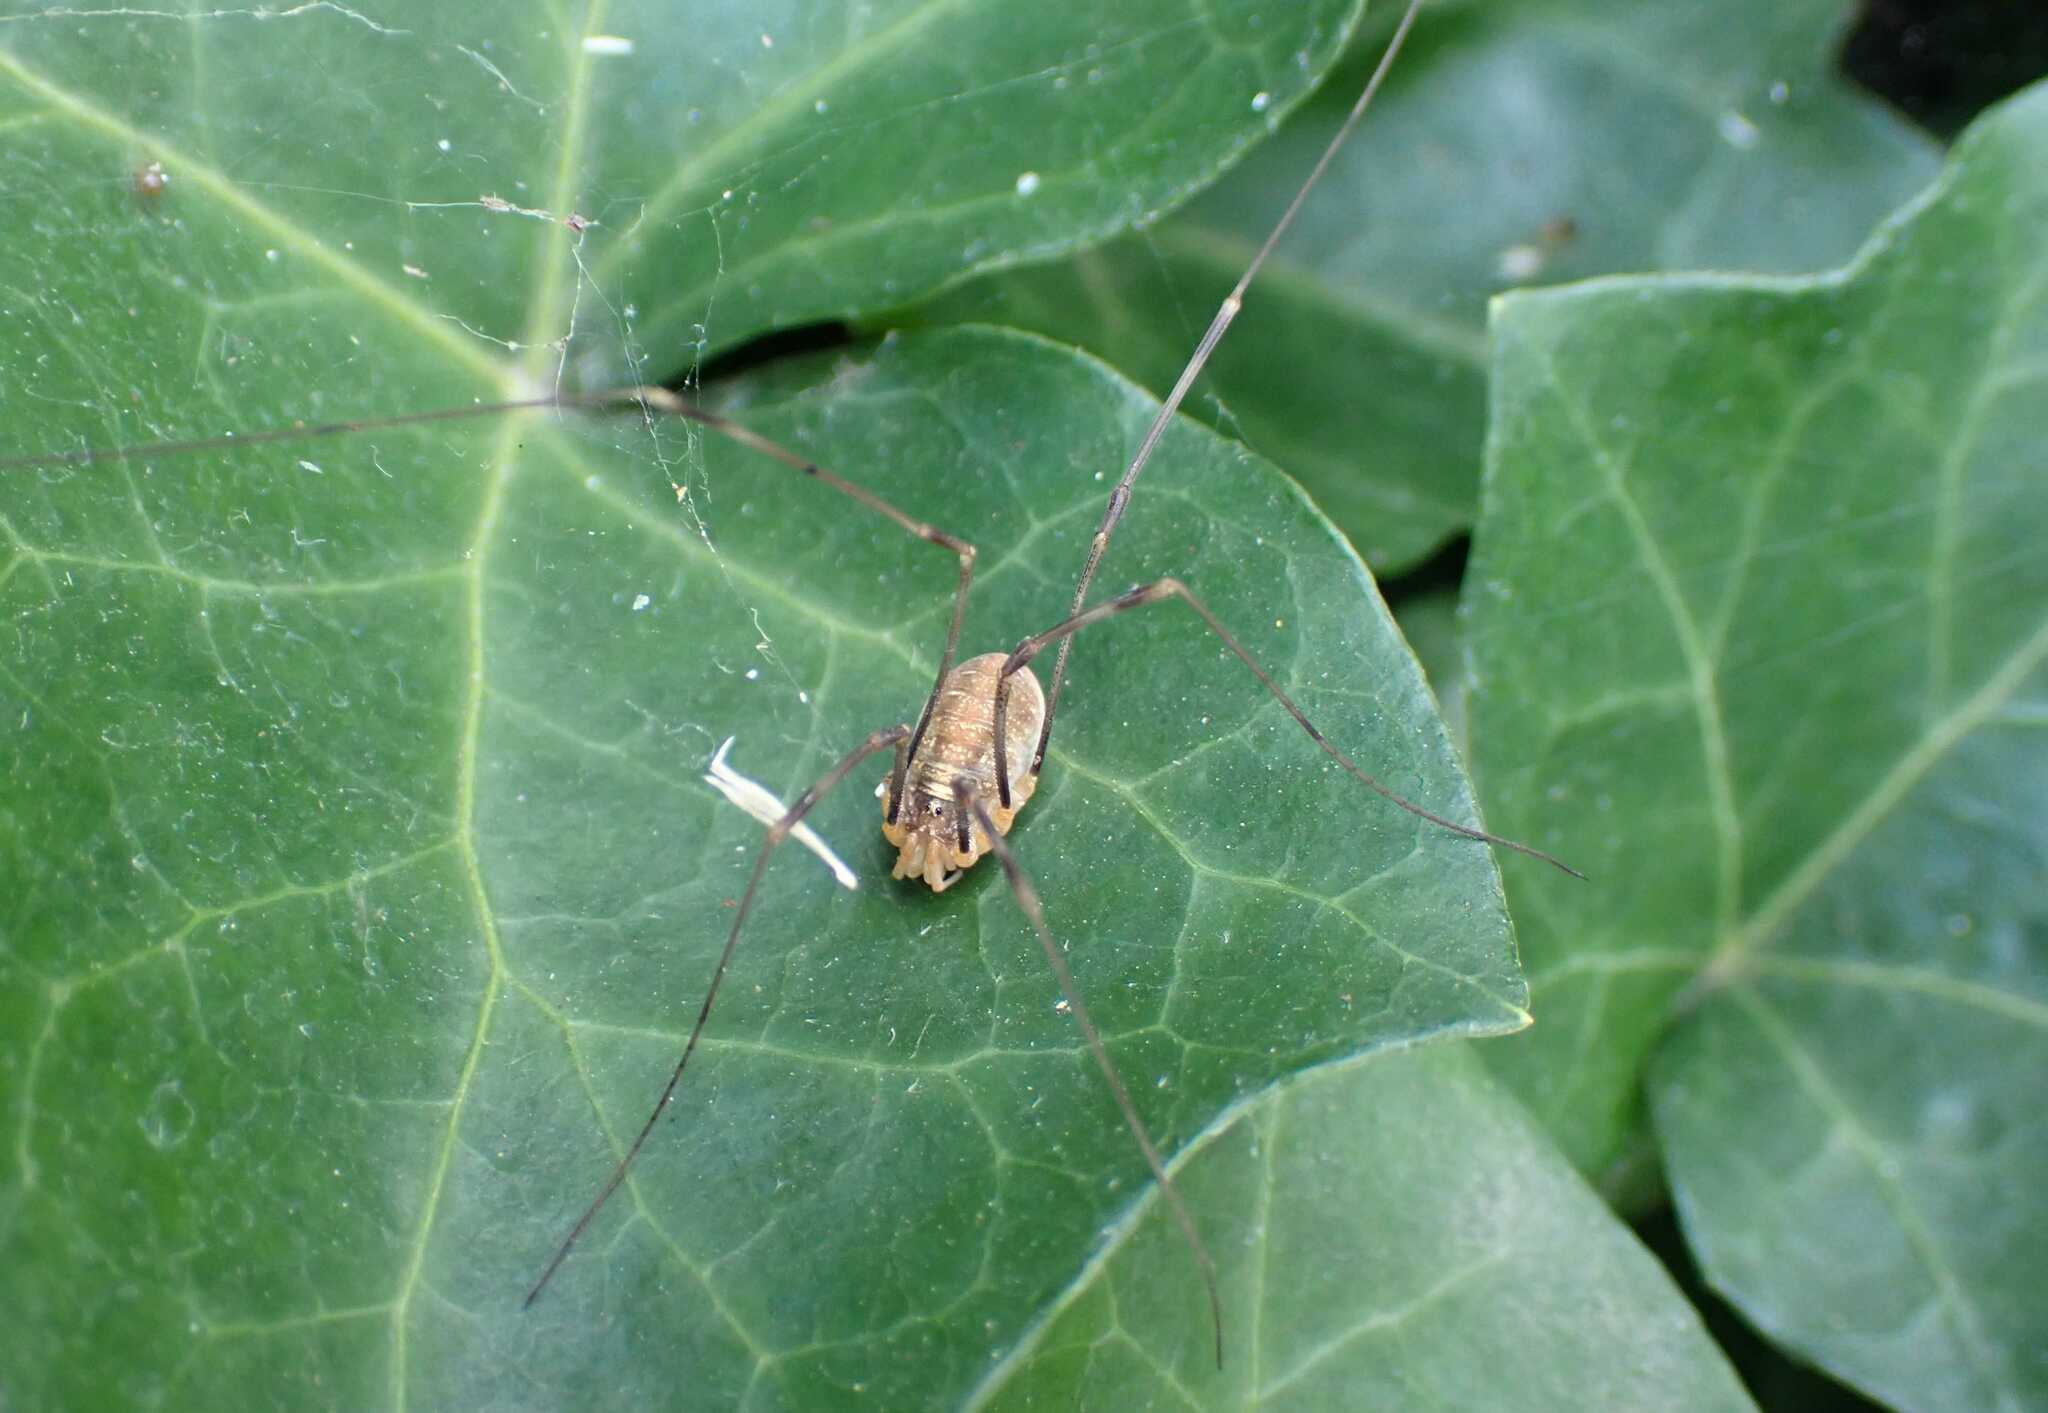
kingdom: Animalia
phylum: Arthropoda
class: Arachnida
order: Opiliones
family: Phalangiidae
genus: Opilio
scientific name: Opilio canestrinii
